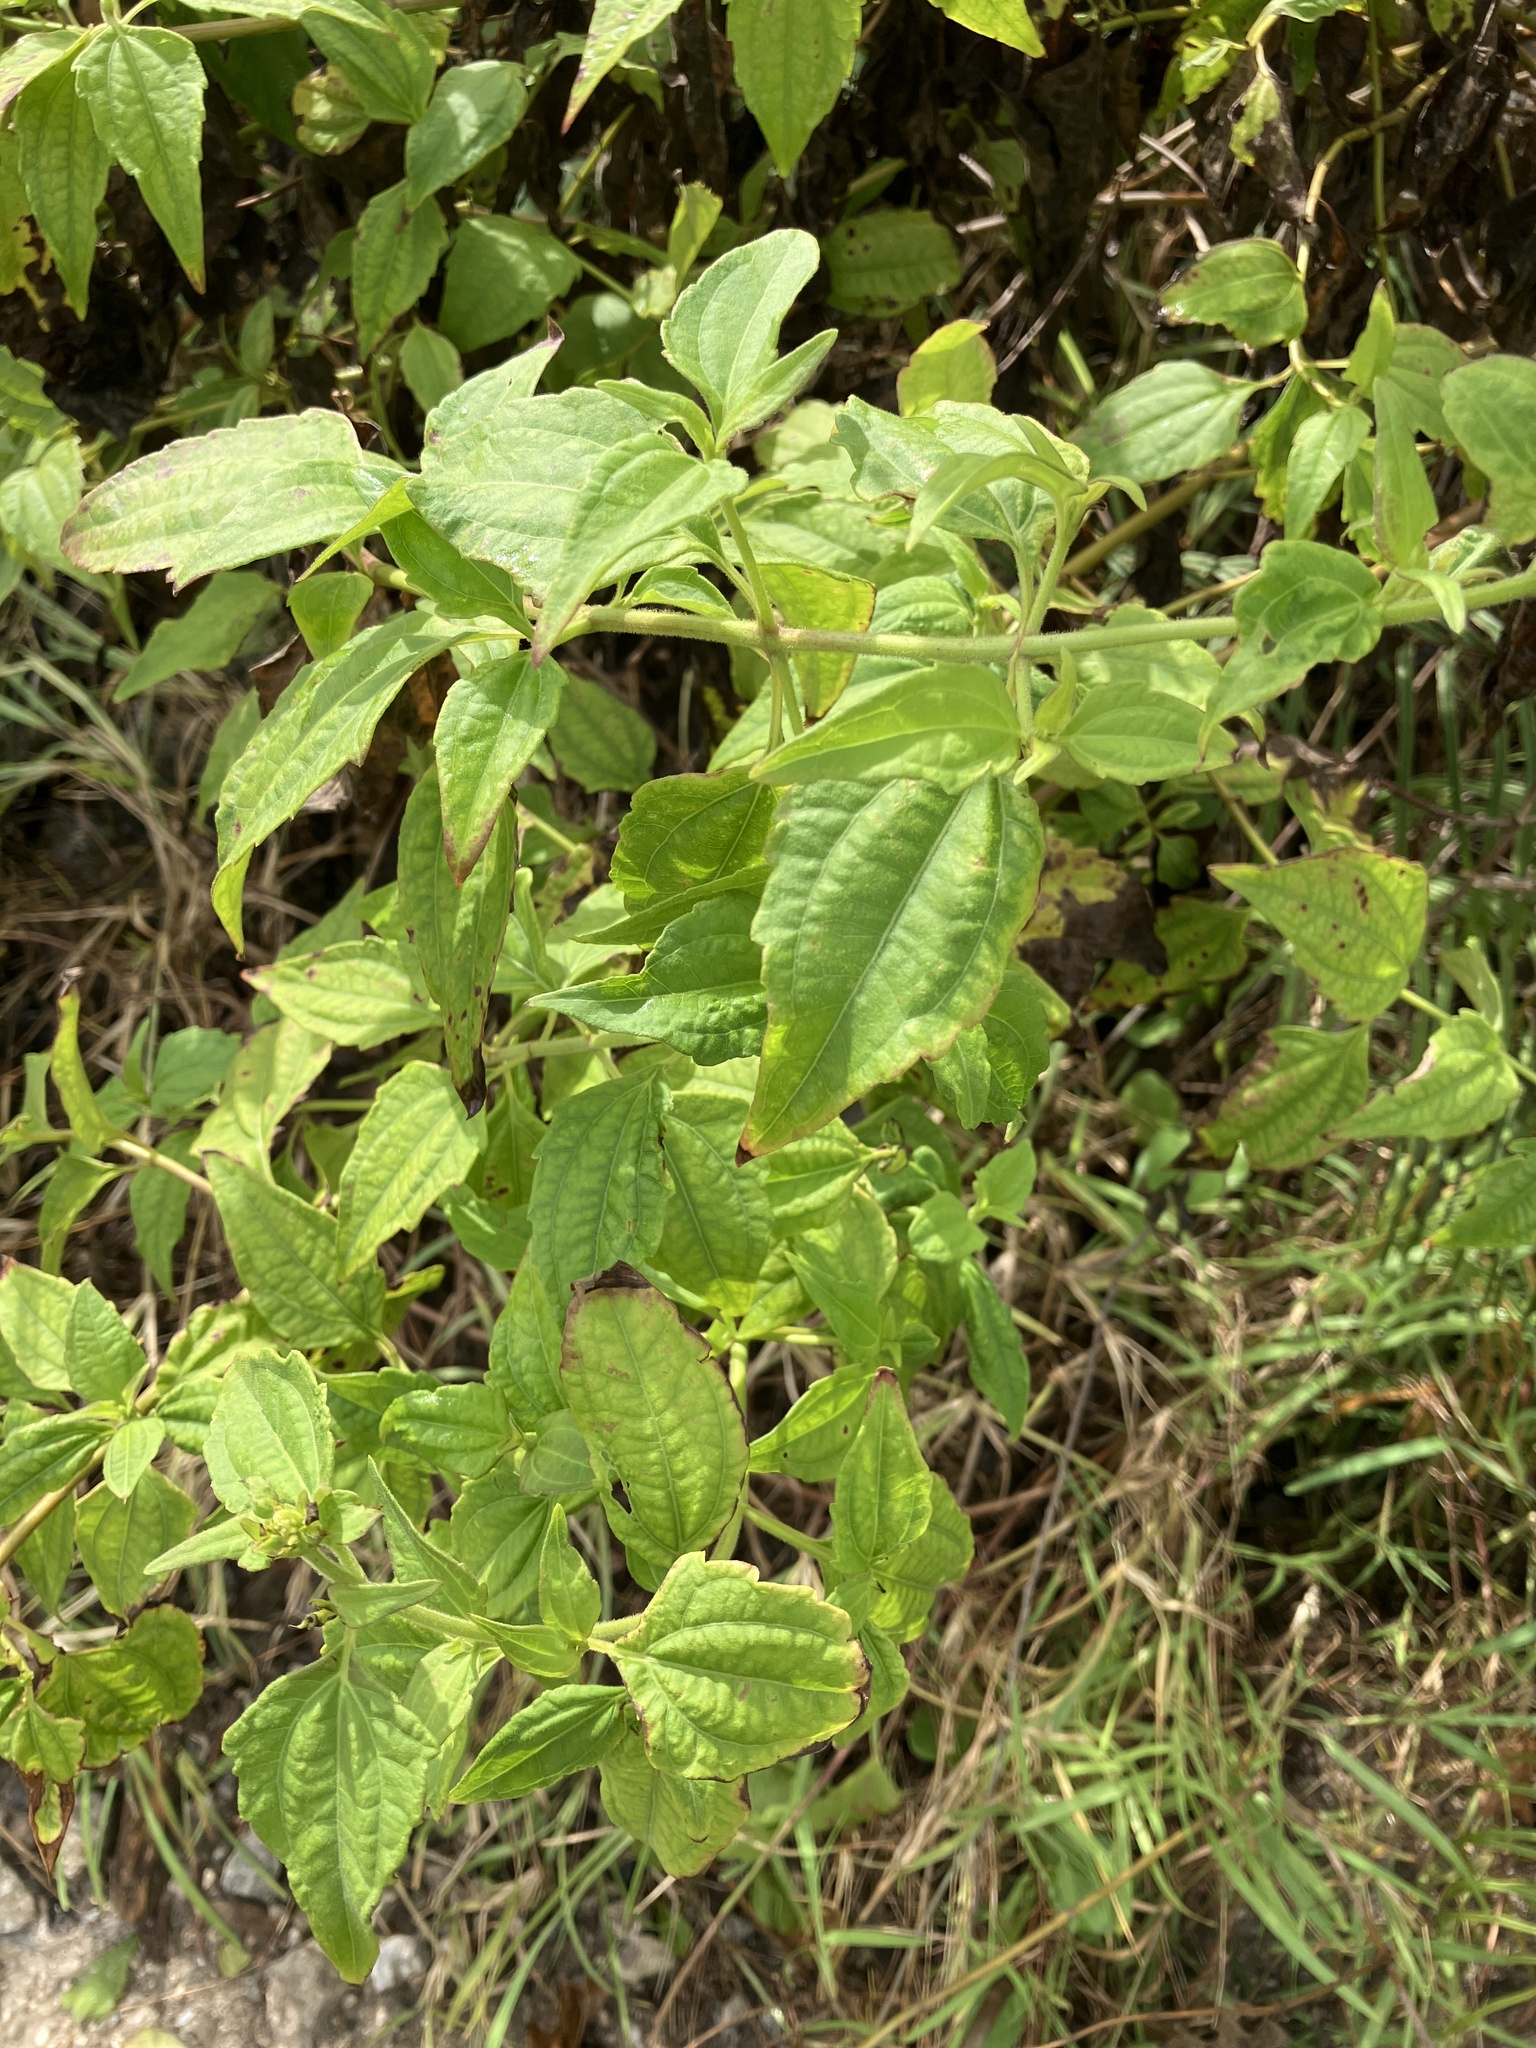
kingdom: Plantae
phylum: Tracheophyta
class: Magnoliopsida
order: Asterales
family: Asteraceae
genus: Chromolaena
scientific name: Chromolaena odorata
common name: Siamweed
